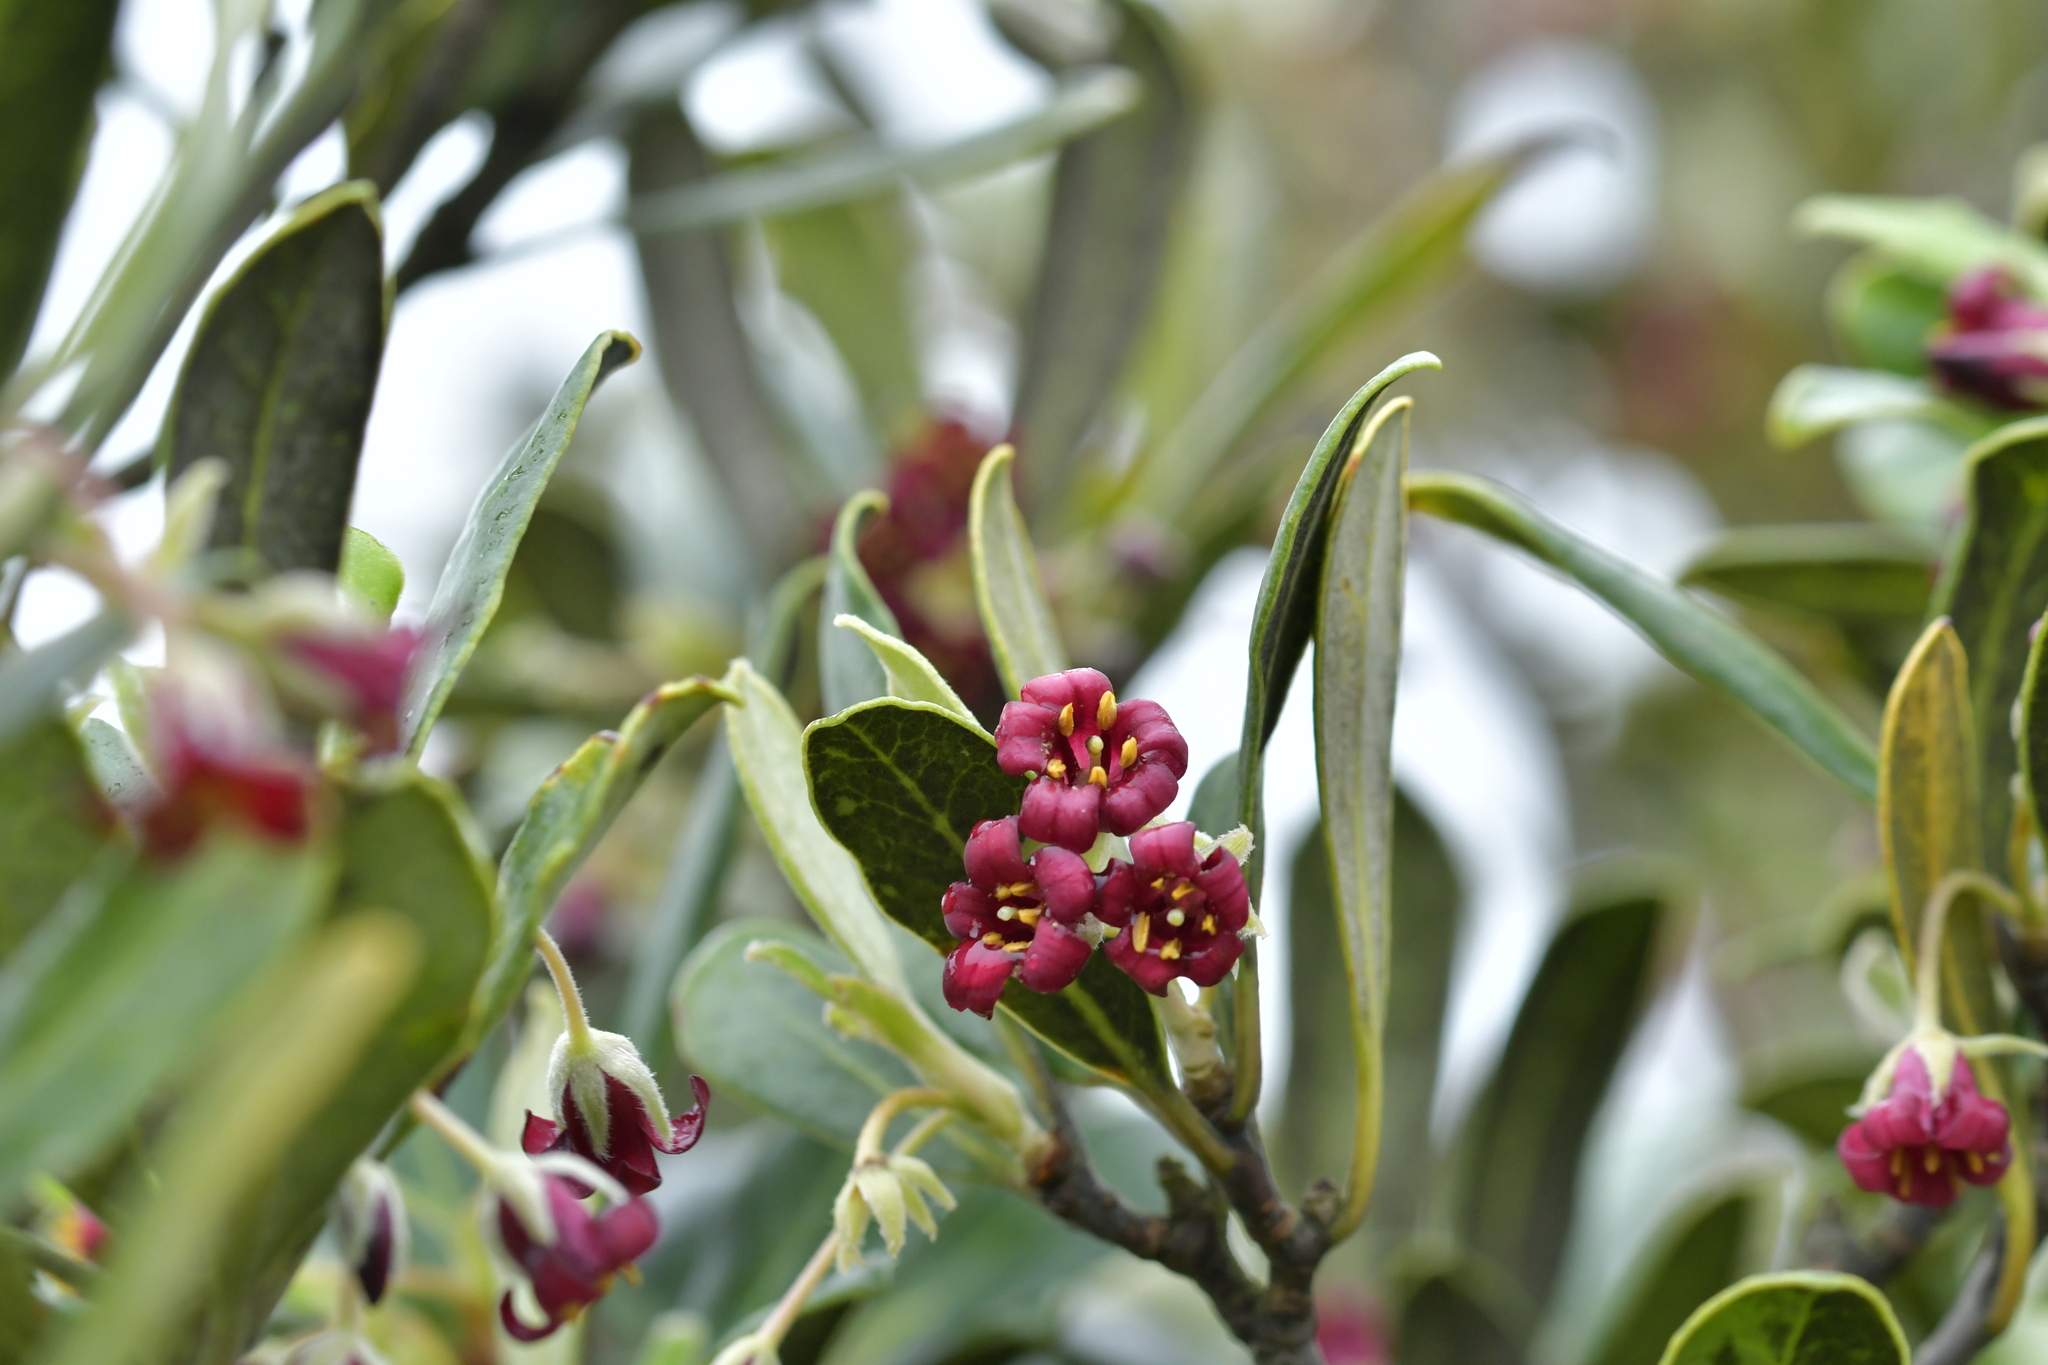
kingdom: Plantae
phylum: Tracheophyta
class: Magnoliopsida
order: Apiales
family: Pittosporaceae
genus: Pittosporum
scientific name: Pittosporum crassifolium
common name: Karo
